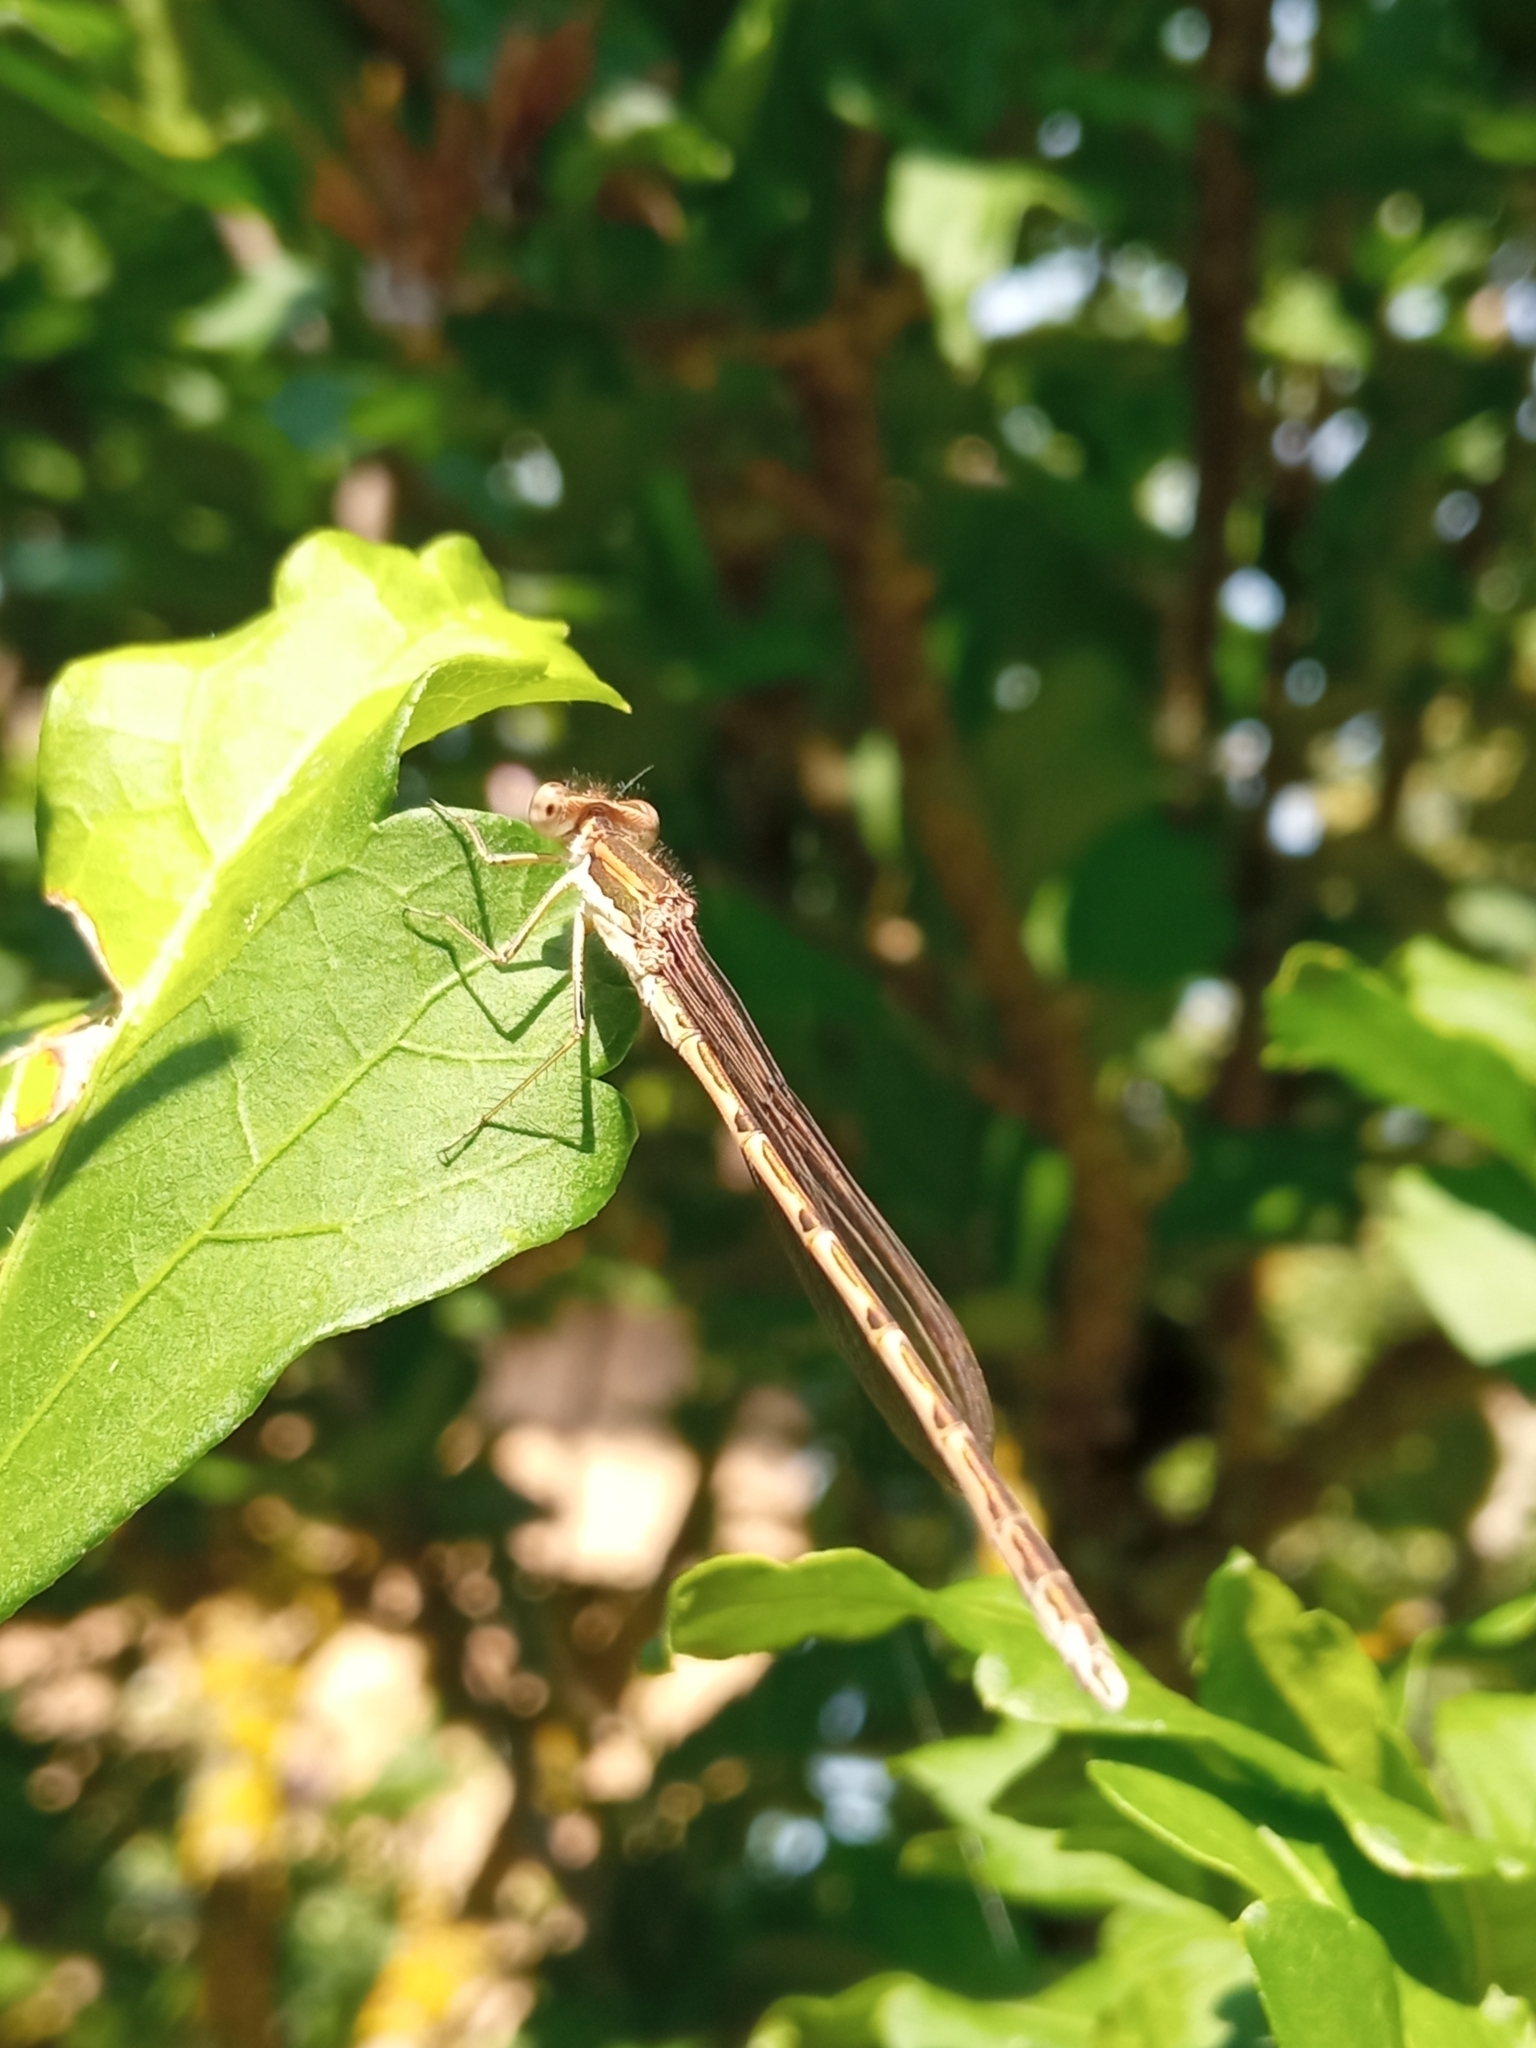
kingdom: Animalia
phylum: Arthropoda
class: Insecta
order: Odonata
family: Lestidae
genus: Sympecma
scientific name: Sympecma fusca
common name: Common winter damsel
